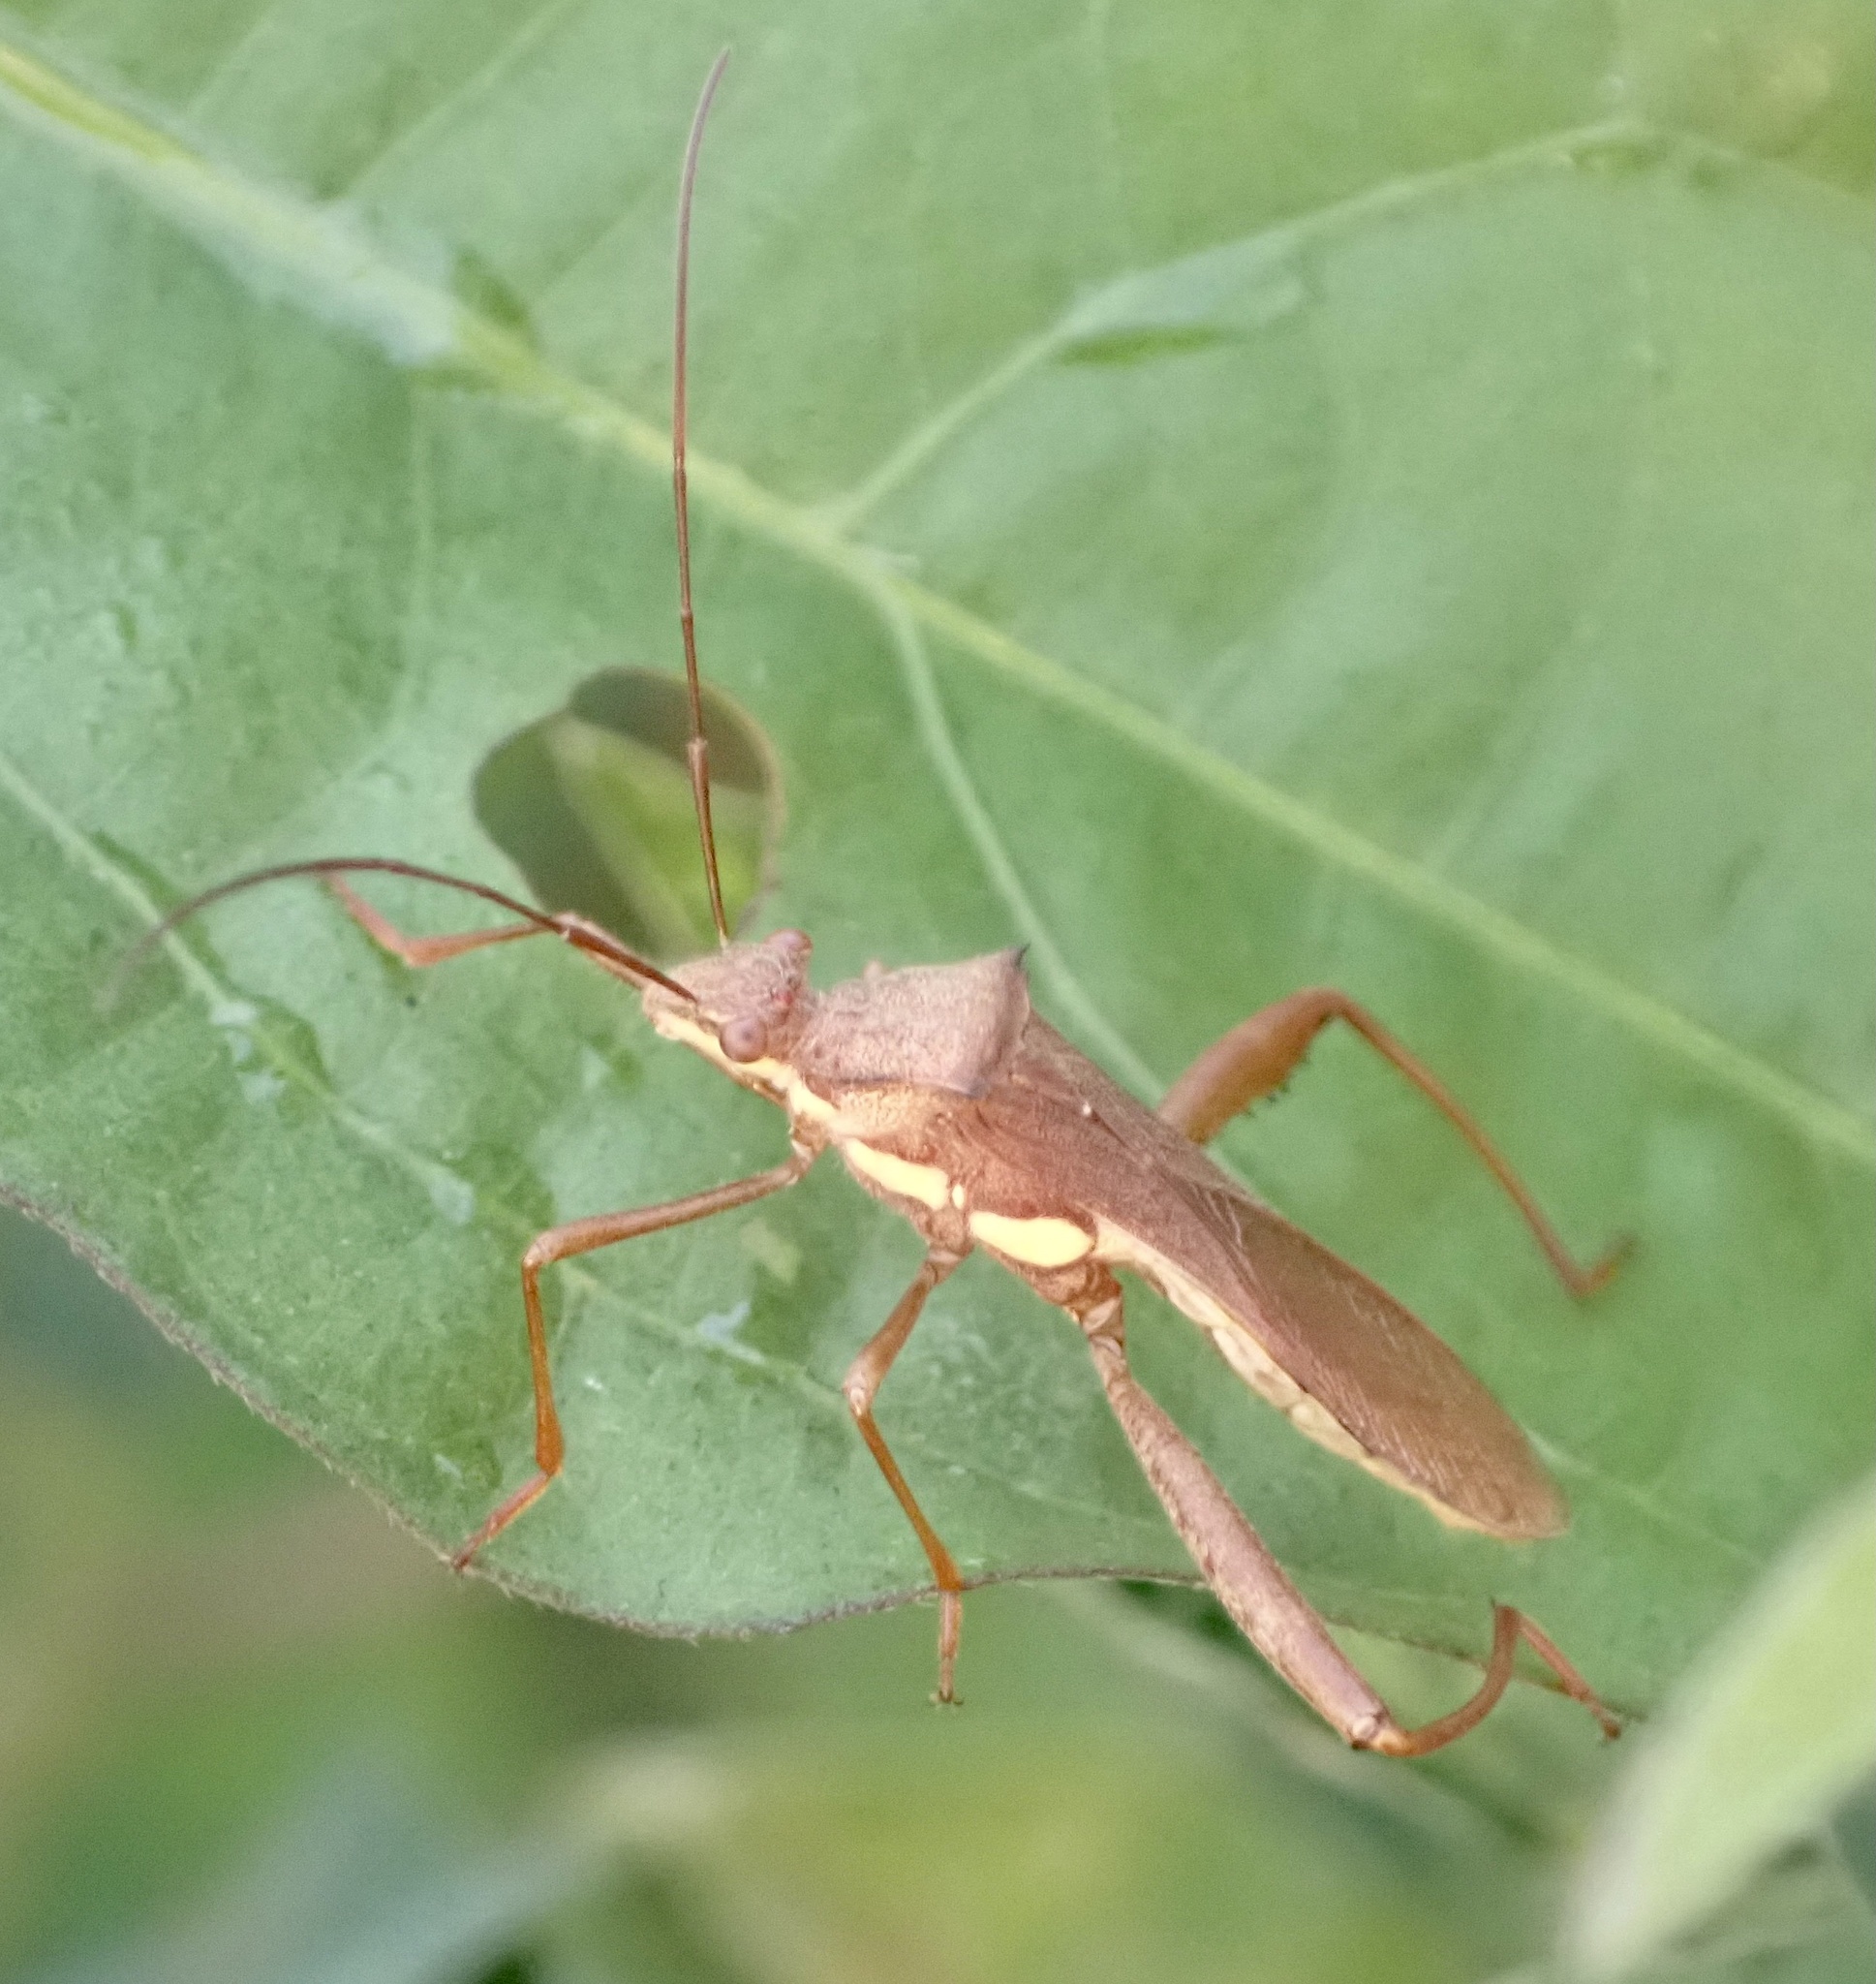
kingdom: Animalia
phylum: Arthropoda
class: Insecta
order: Hemiptera
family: Alydidae
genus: Riptortus
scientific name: Riptortus dentipes
